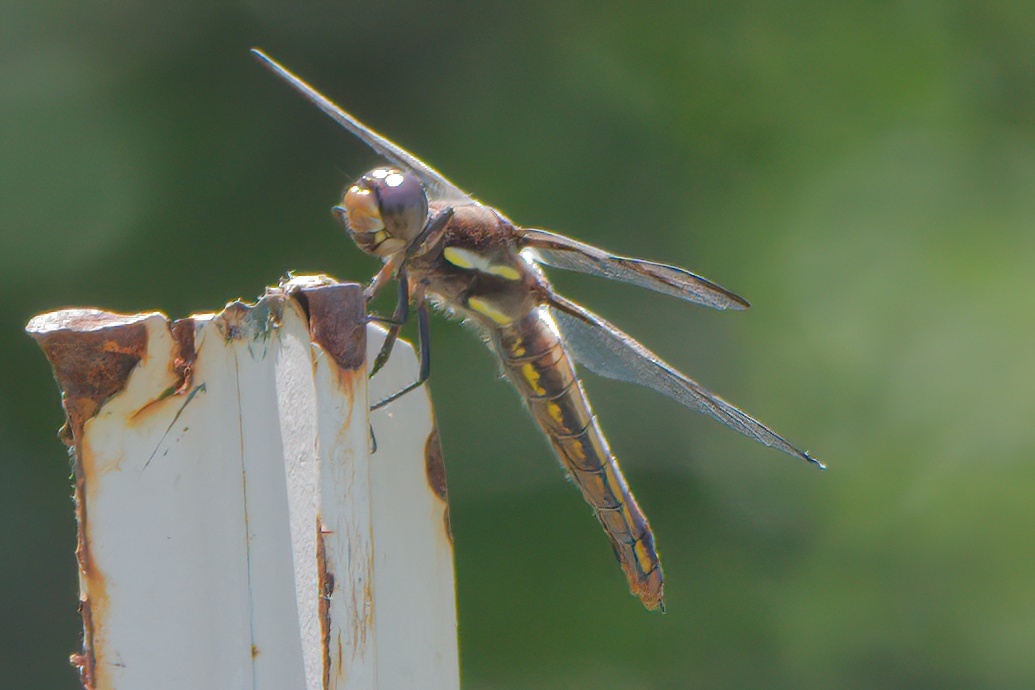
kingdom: Animalia
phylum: Arthropoda
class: Insecta
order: Odonata
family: Libellulidae
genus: Libellula
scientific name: Libellula pulchella
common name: Twelve-spotted skimmer
